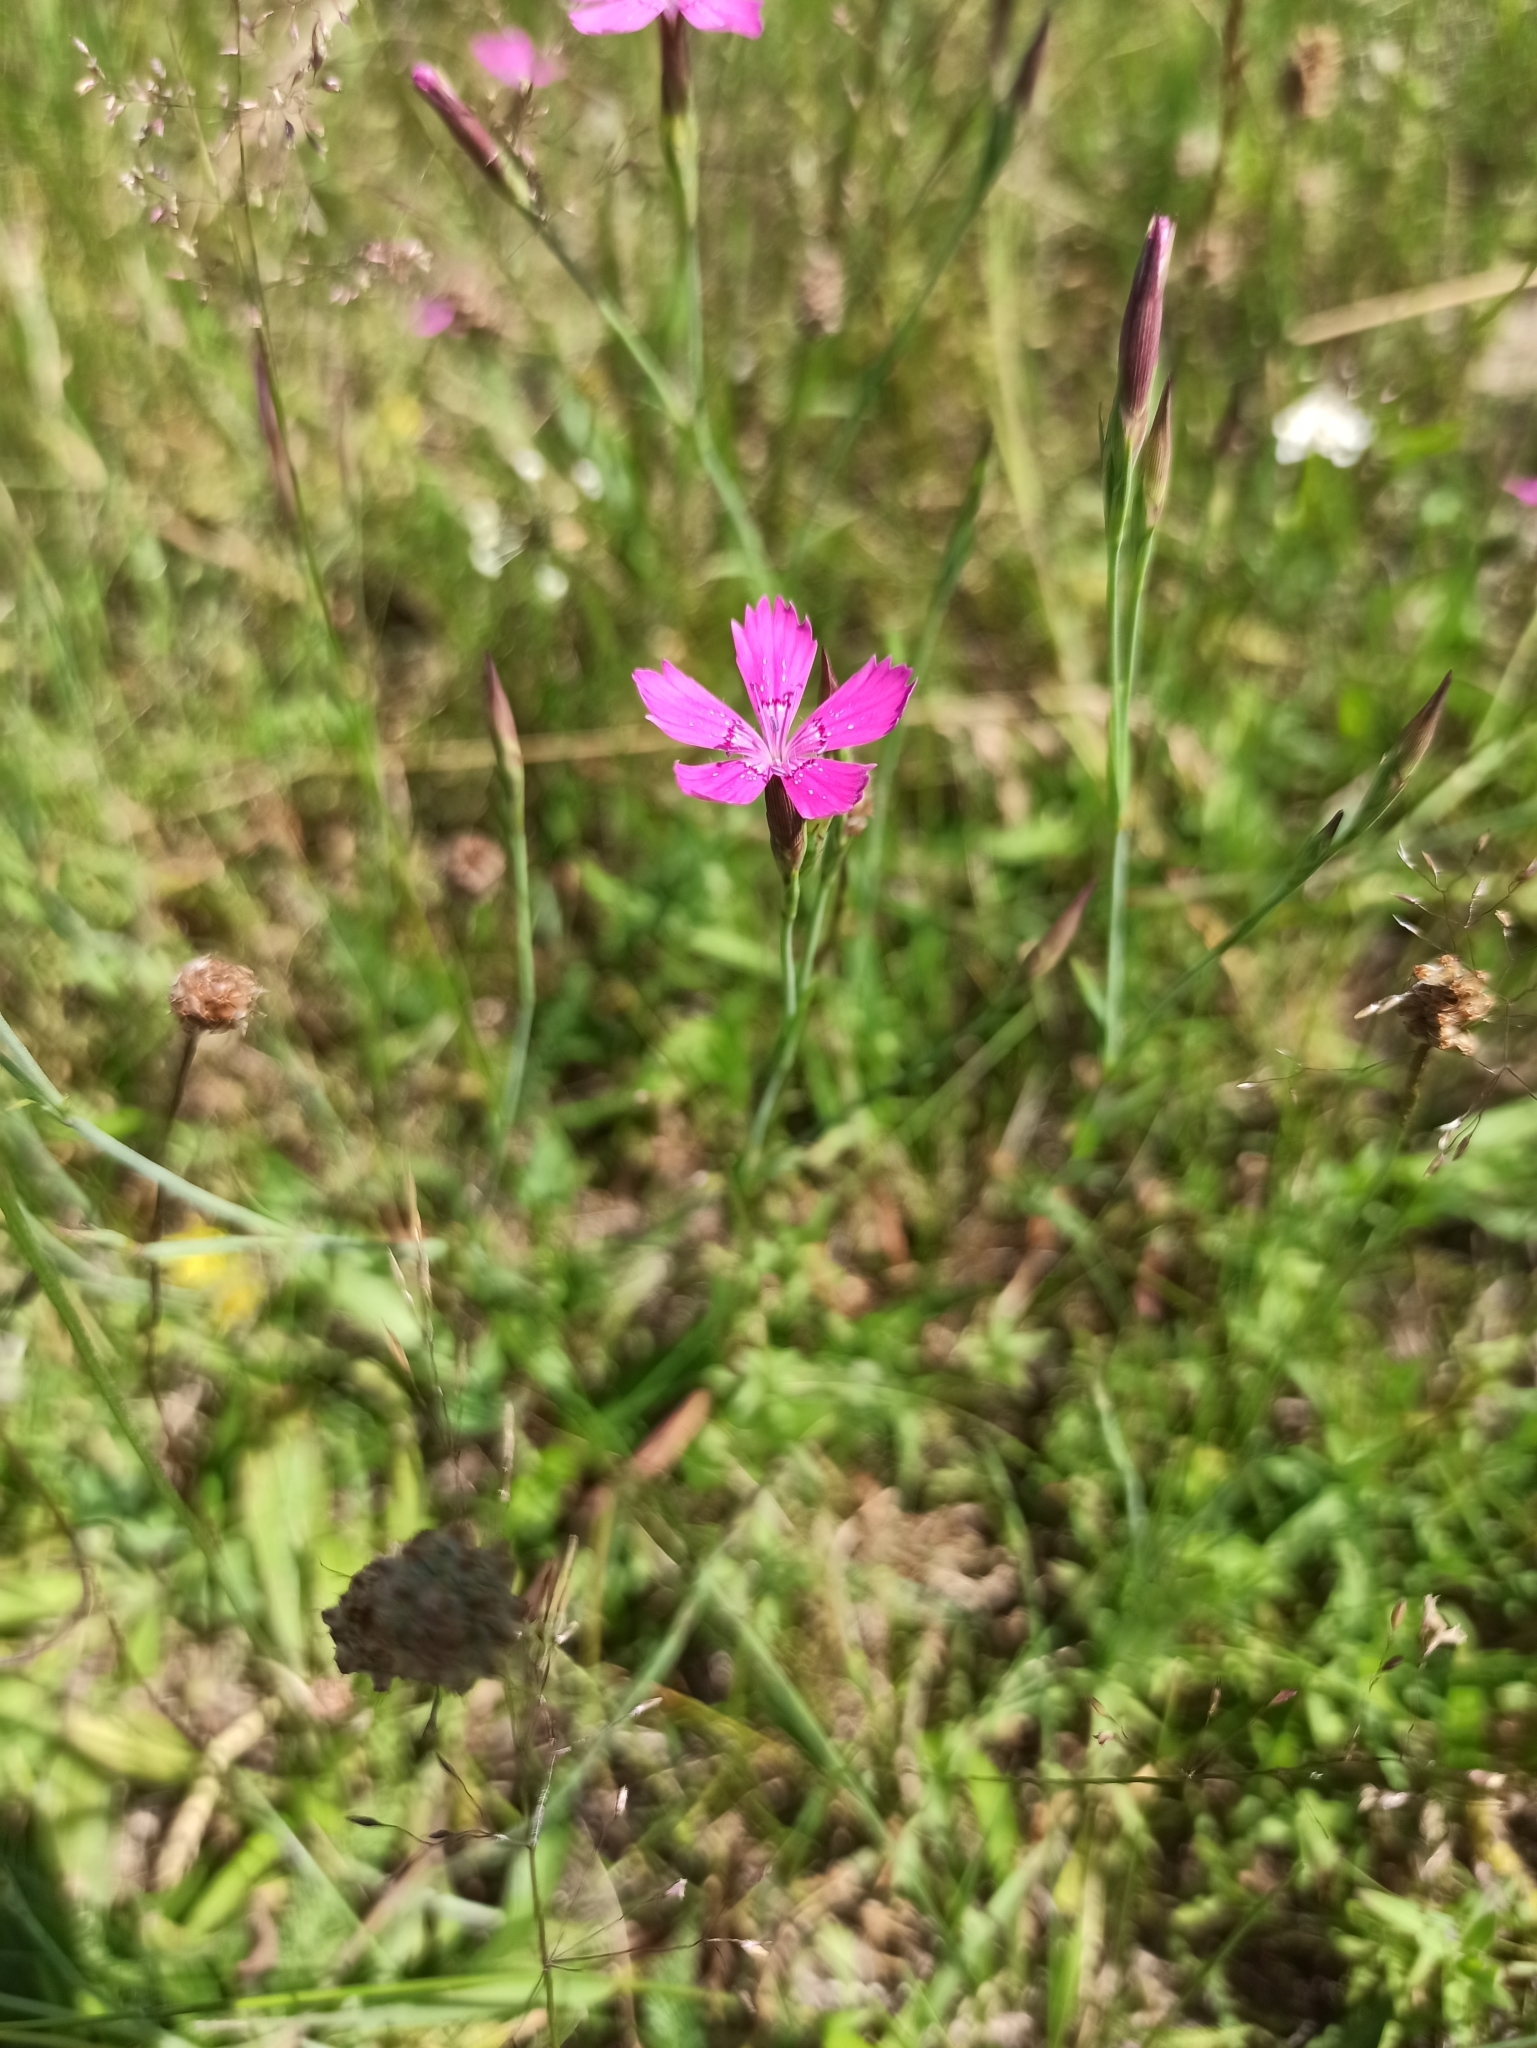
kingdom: Plantae
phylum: Tracheophyta
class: Magnoliopsida
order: Caryophyllales
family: Caryophyllaceae
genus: Dianthus
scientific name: Dianthus deltoides
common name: Maiden pink
